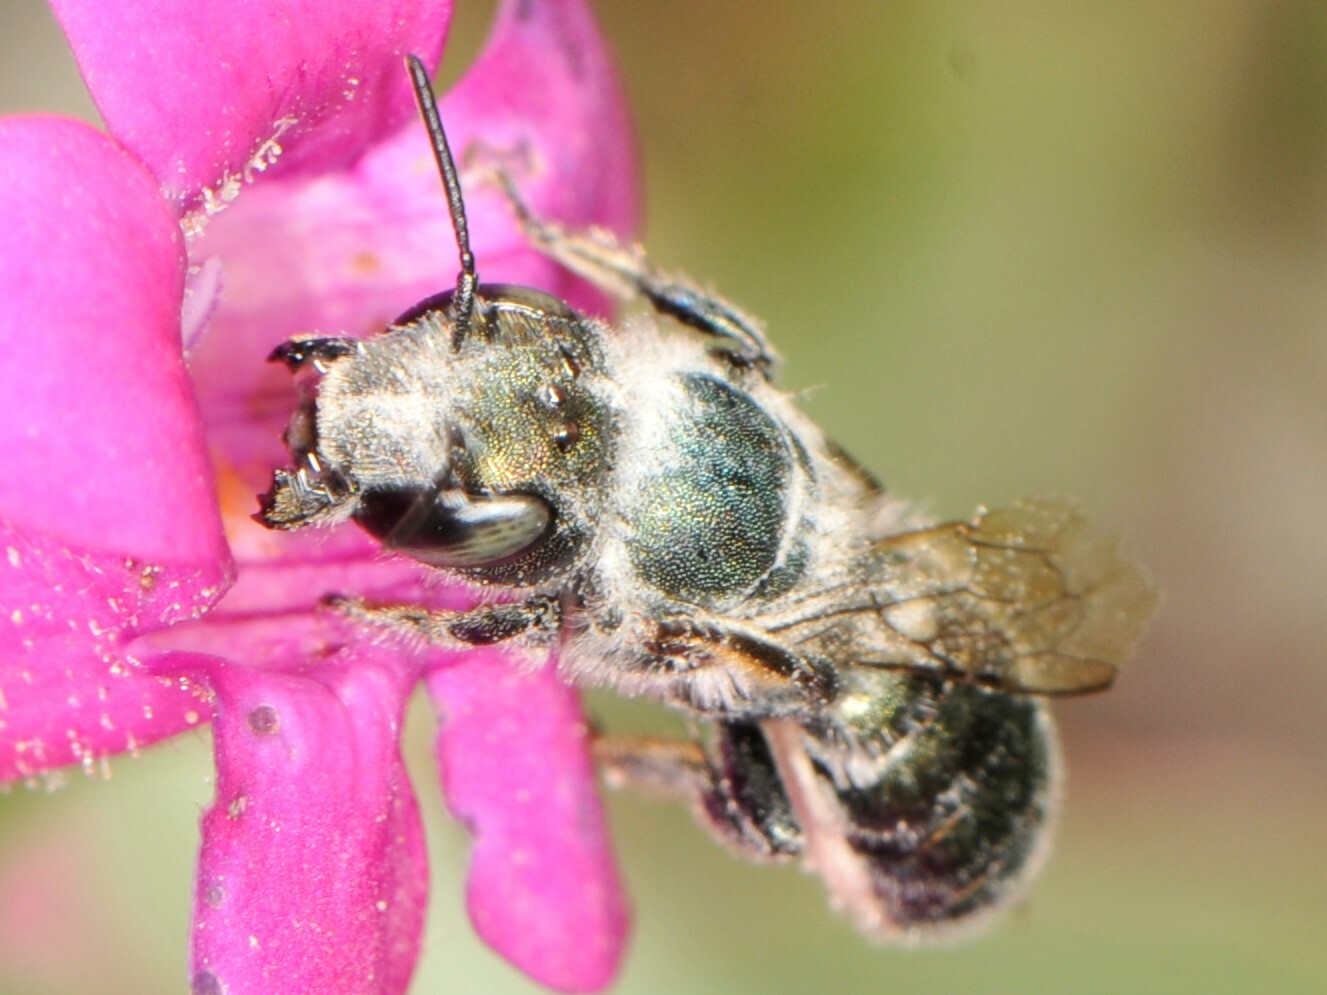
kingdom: Animalia
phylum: Arthropoda
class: Insecta
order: Hymenoptera
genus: Melanosmia
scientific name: Melanosmia
